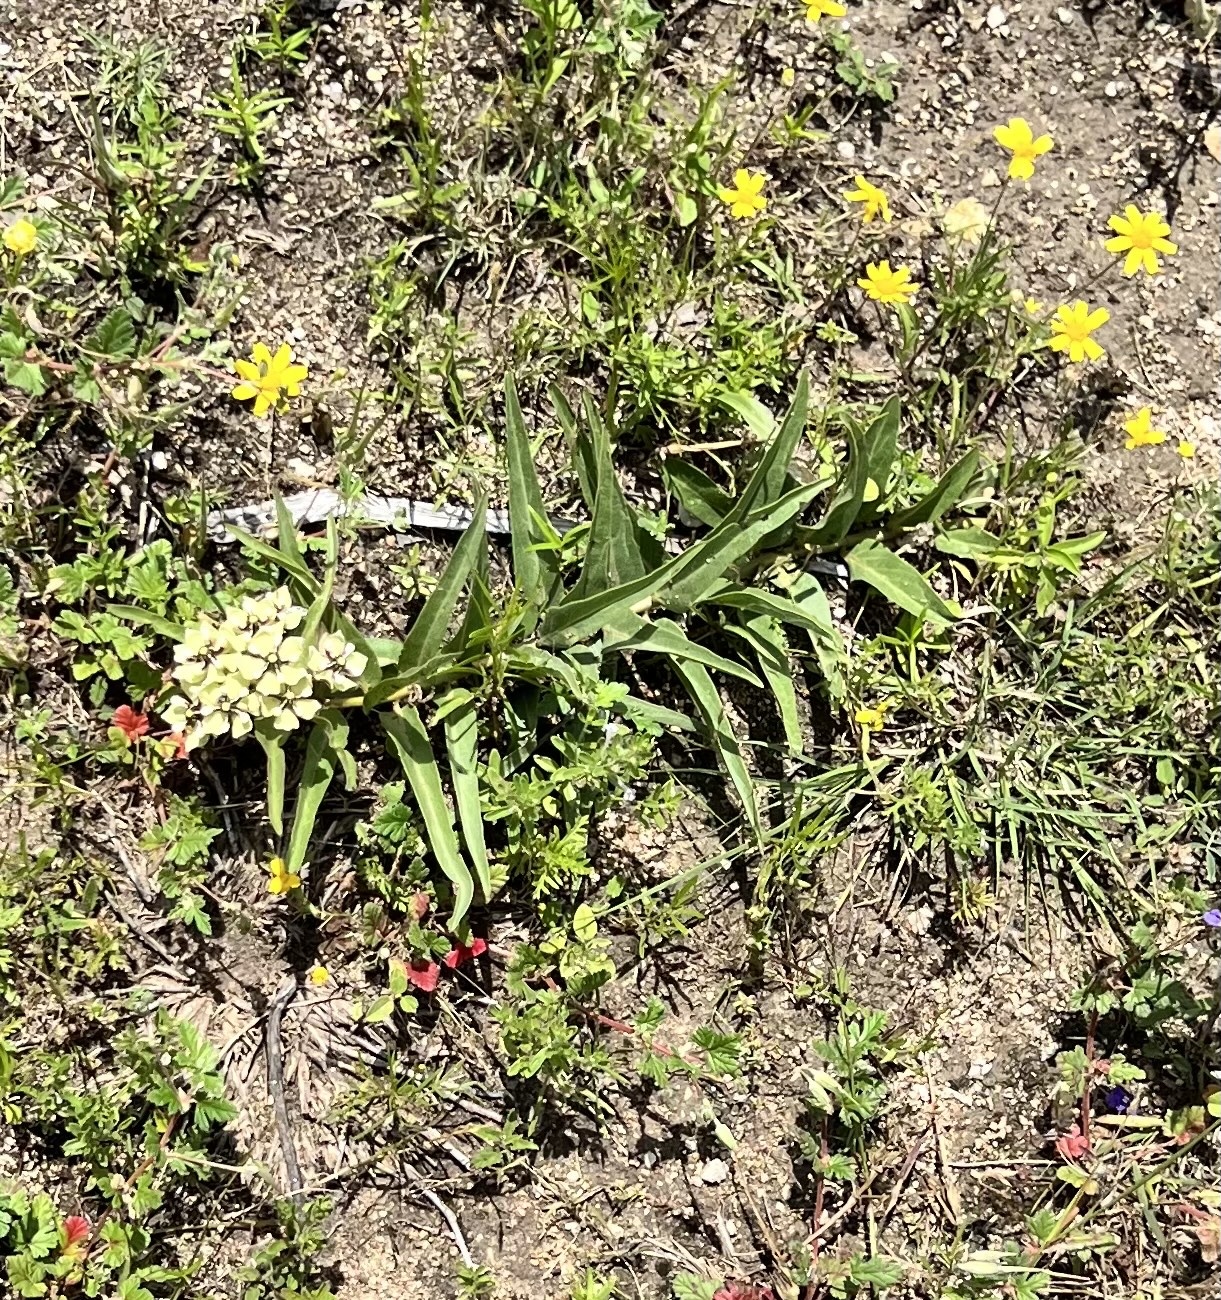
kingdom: Plantae
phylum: Tracheophyta
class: Magnoliopsida
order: Gentianales
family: Apocynaceae
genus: Asclepias
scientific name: Asclepias asperula
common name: Antelope horns
